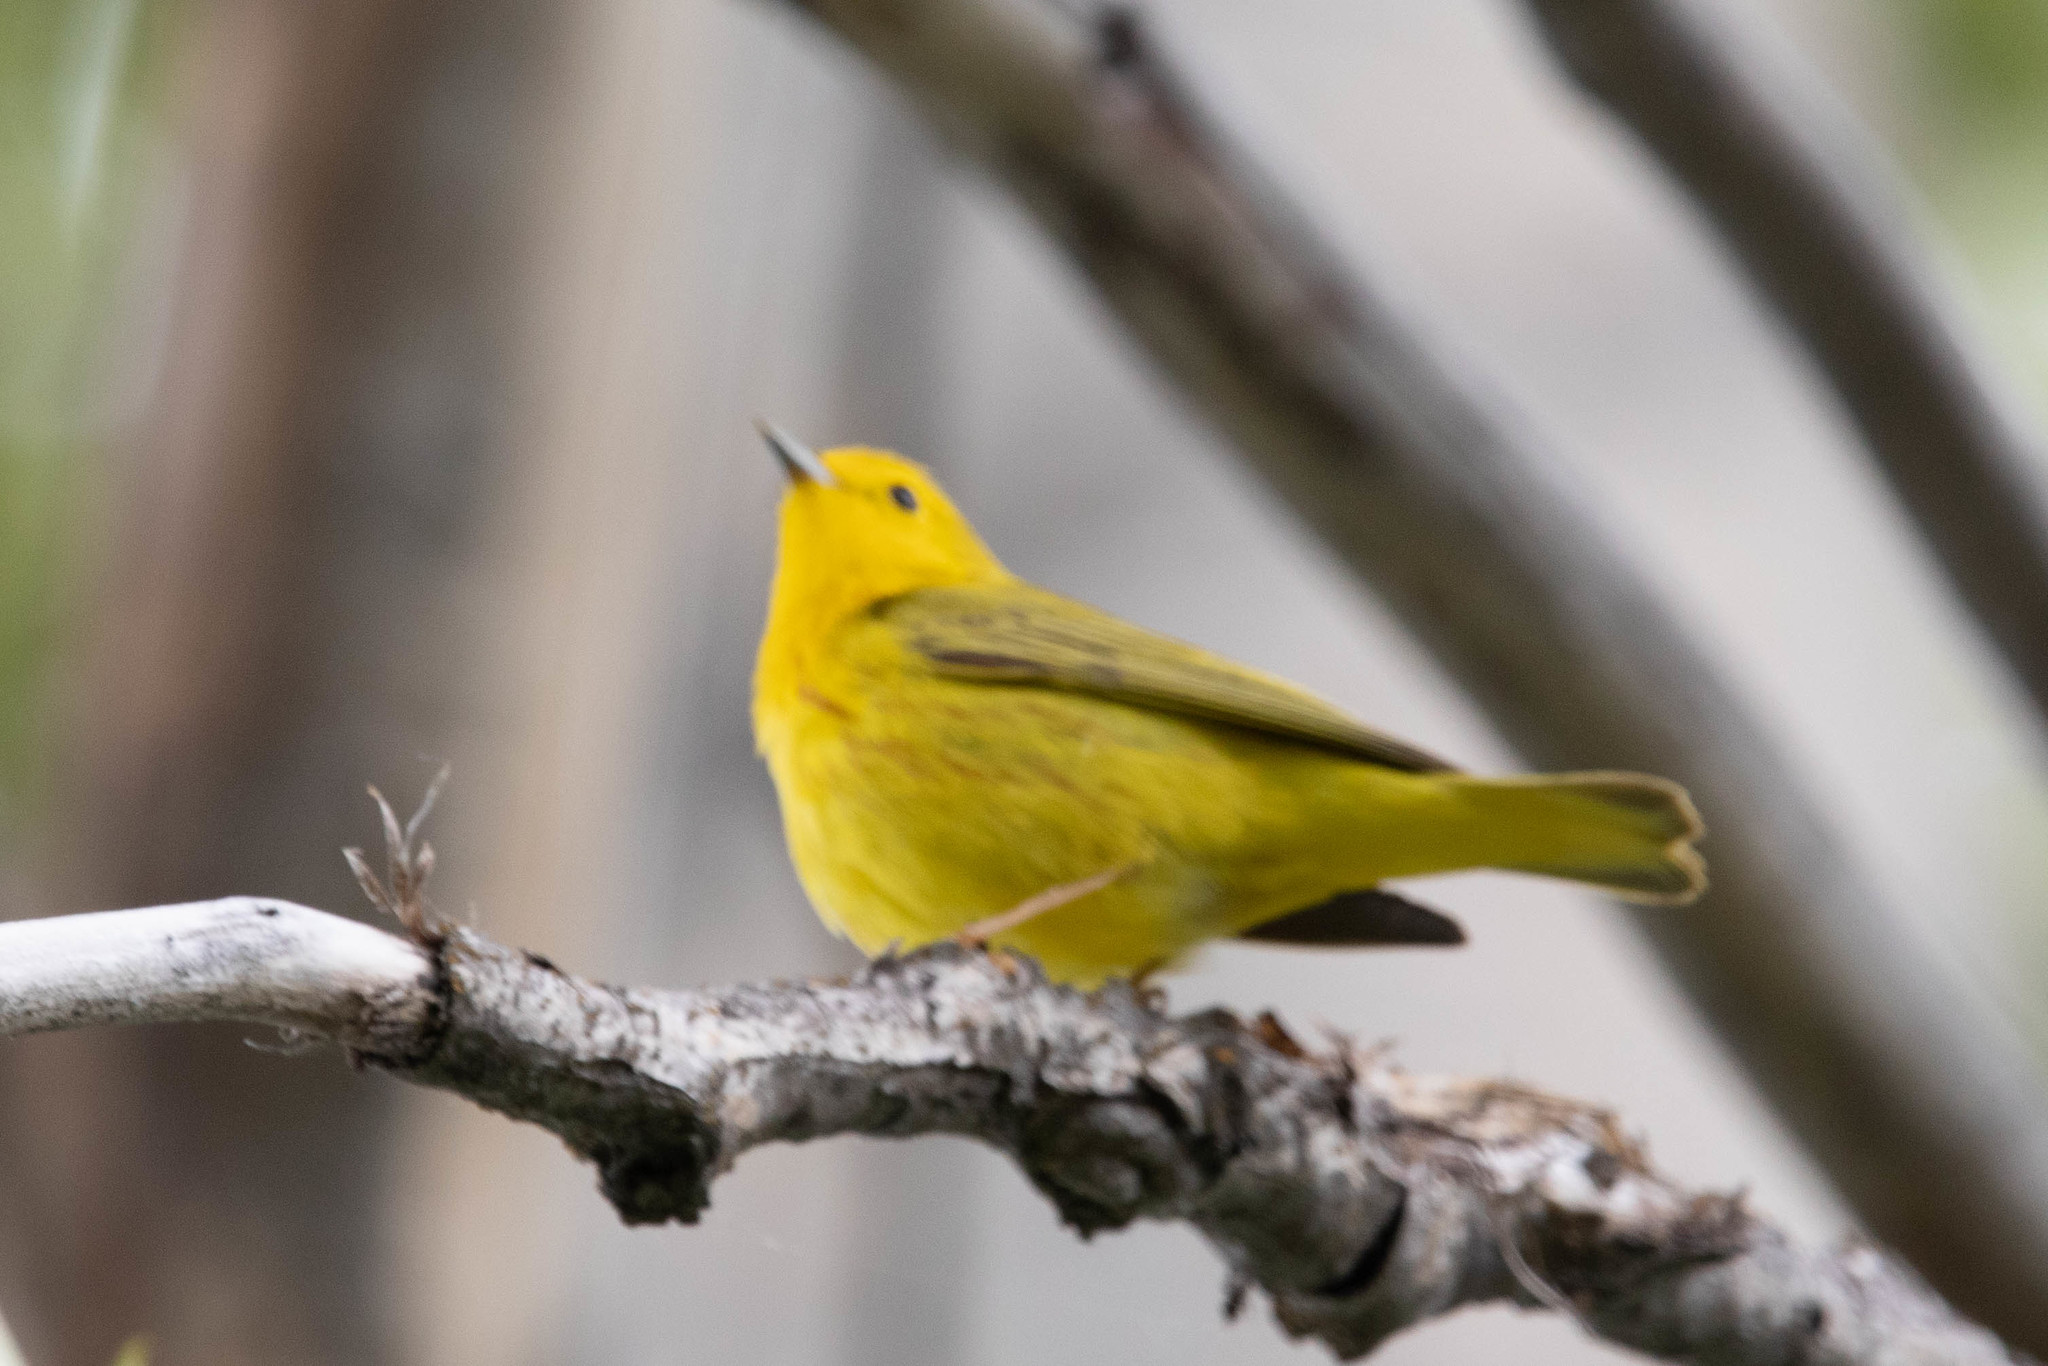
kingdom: Animalia
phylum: Chordata
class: Aves
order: Passeriformes
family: Parulidae
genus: Setophaga
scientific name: Setophaga petechia
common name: Yellow warbler
